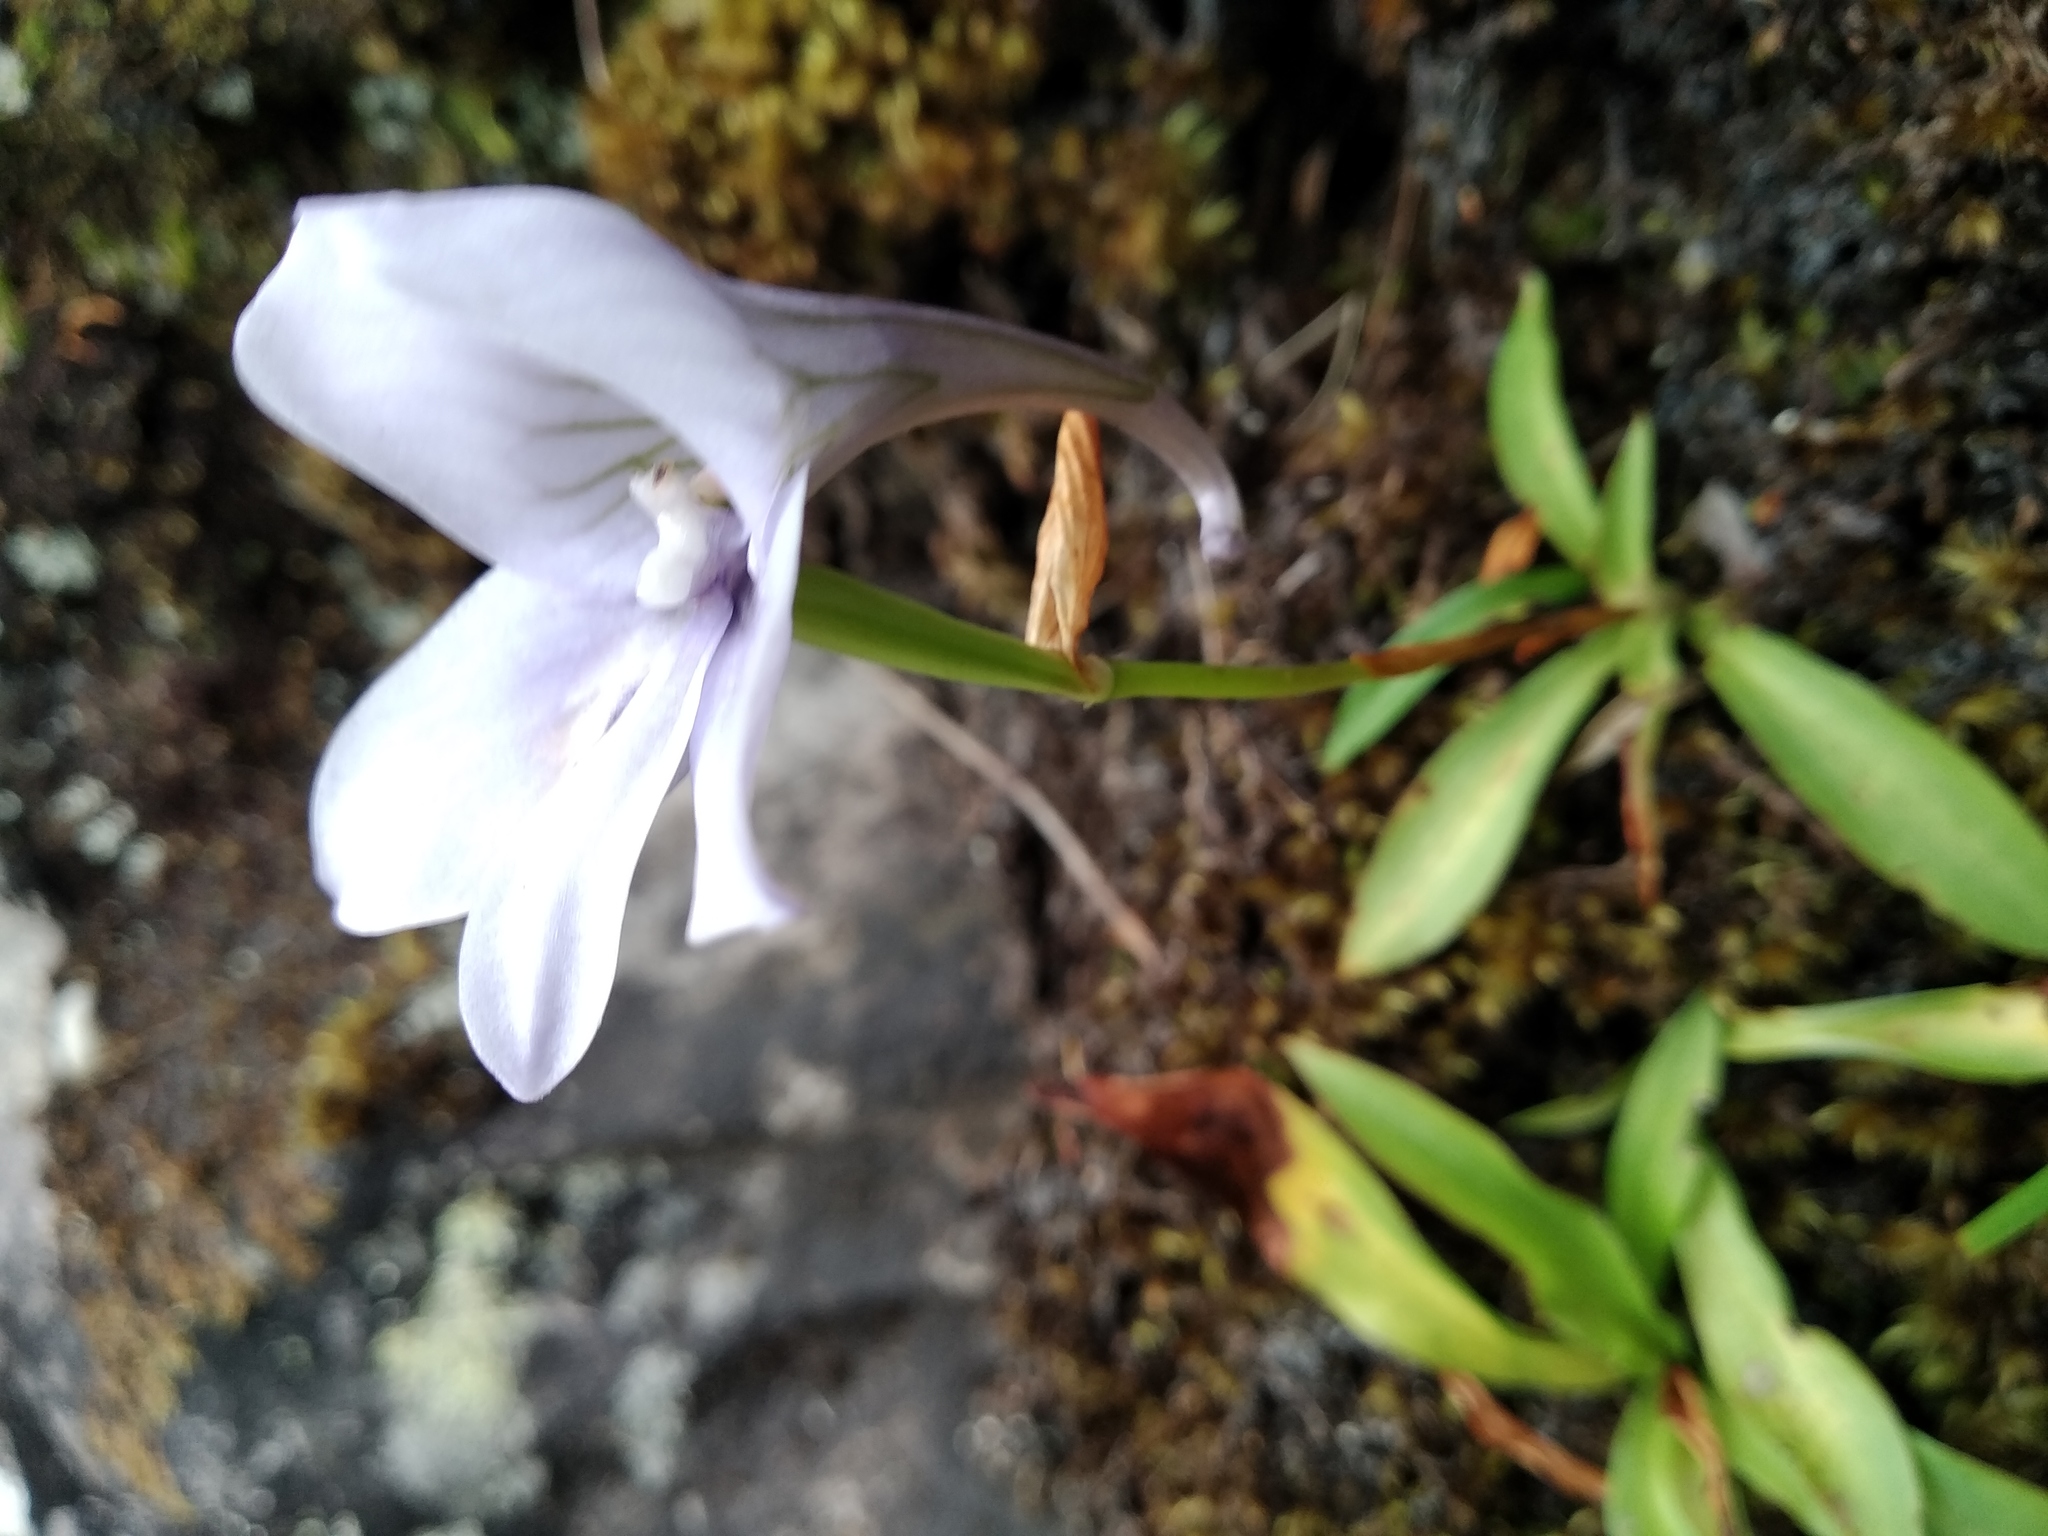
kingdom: Plantae
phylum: Tracheophyta
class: Liliopsida
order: Asparagales
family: Orchidaceae
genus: Disa
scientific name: Disa longicornu
